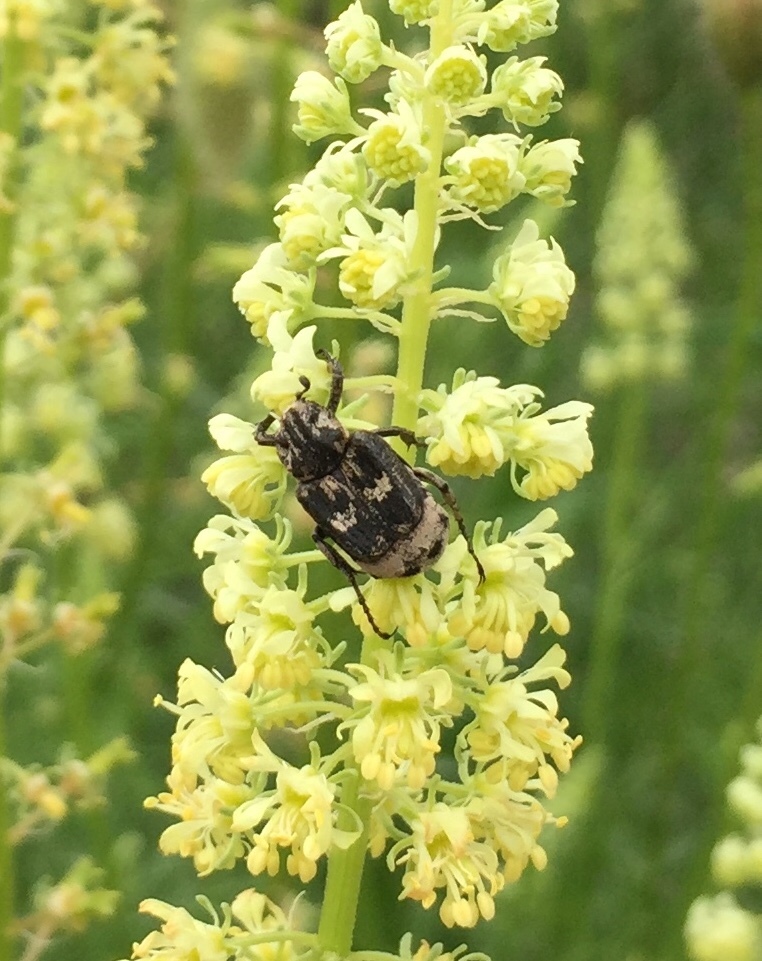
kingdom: Animalia
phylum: Arthropoda
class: Insecta
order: Coleoptera
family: Scarabaeidae
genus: Valgus
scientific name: Valgus hemipterus
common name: Bug flower chafer
